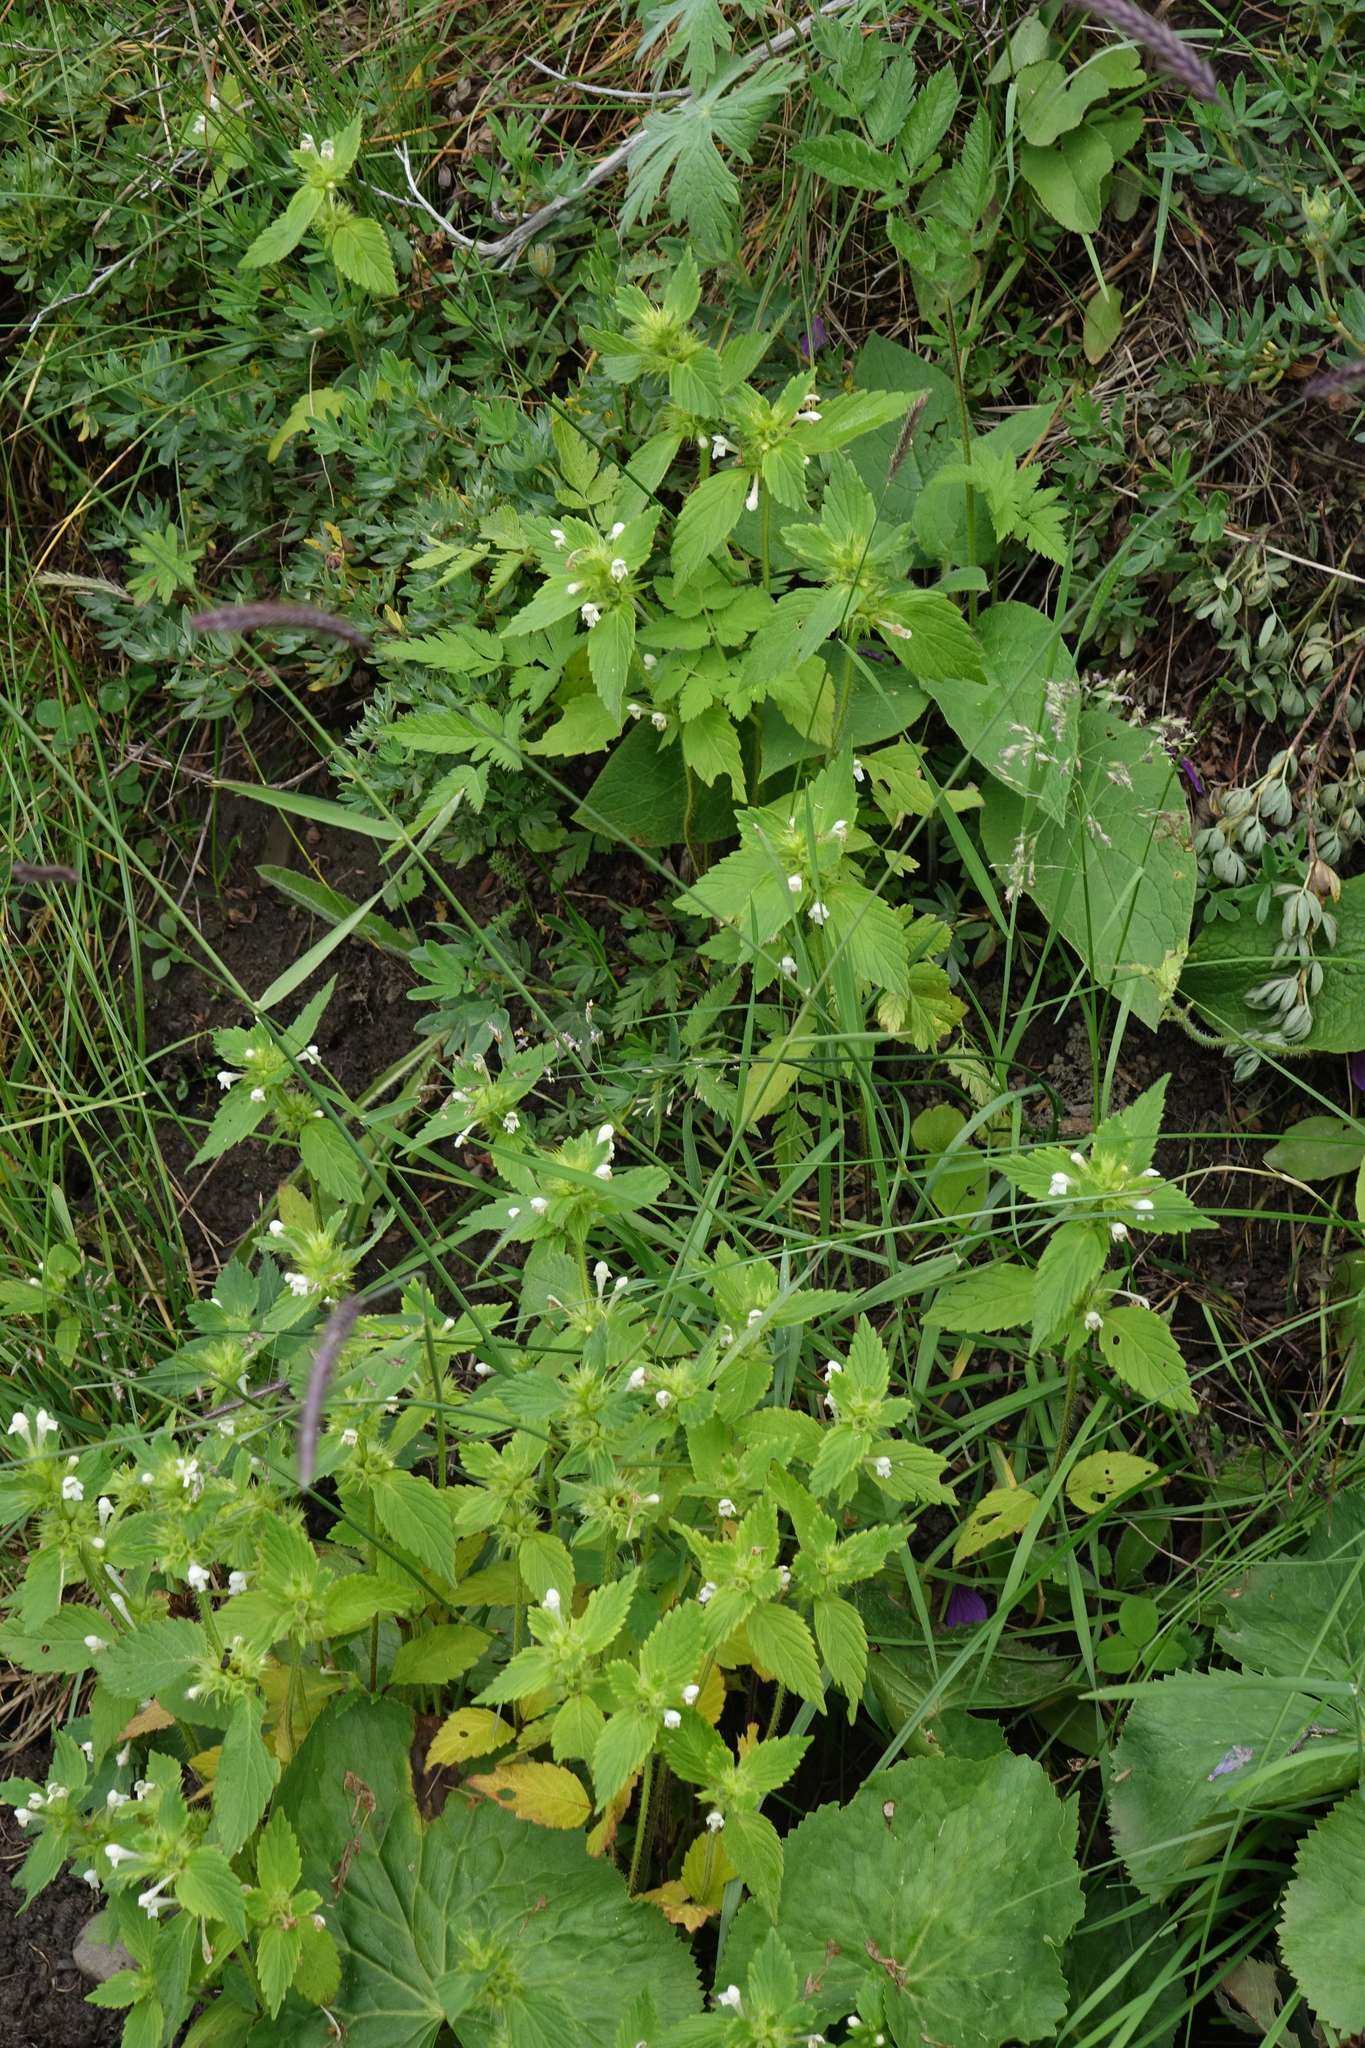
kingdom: Plantae
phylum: Tracheophyta
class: Magnoliopsida
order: Lamiales
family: Lamiaceae
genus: Galeopsis
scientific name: Galeopsis bifida
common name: Bifid hemp-nettle
